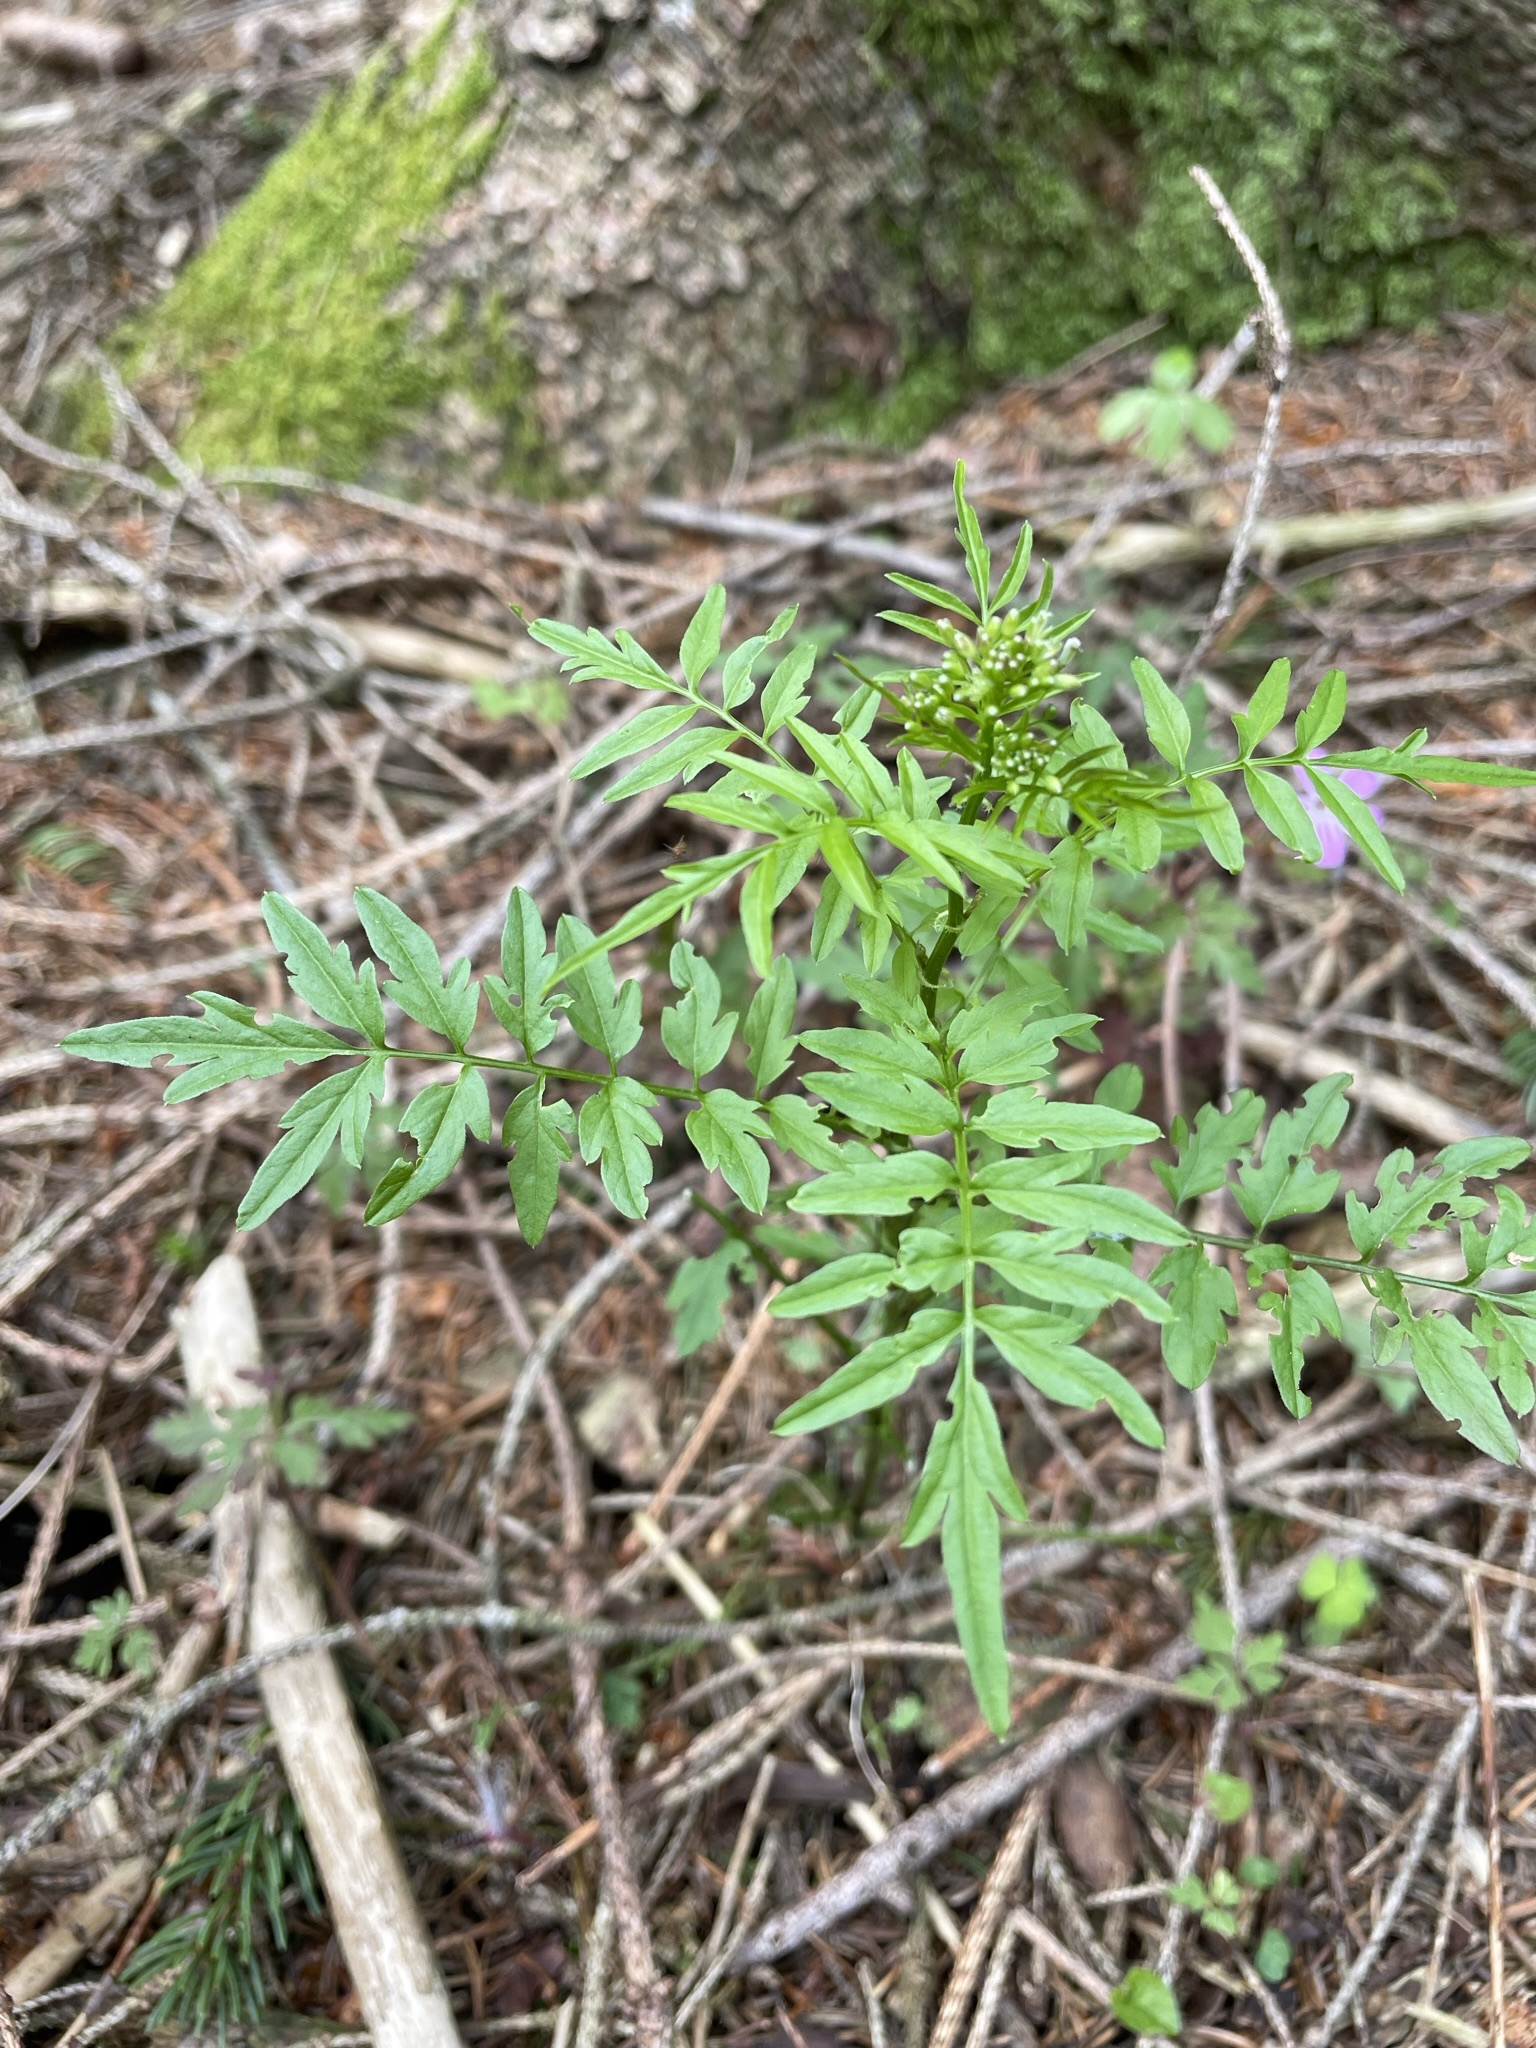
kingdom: Plantae
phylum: Tracheophyta
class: Magnoliopsida
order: Brassicales
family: Brassicaceae
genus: Cardamine
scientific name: Cardamine impatiens
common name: Narrow-leaved bitter-cress
